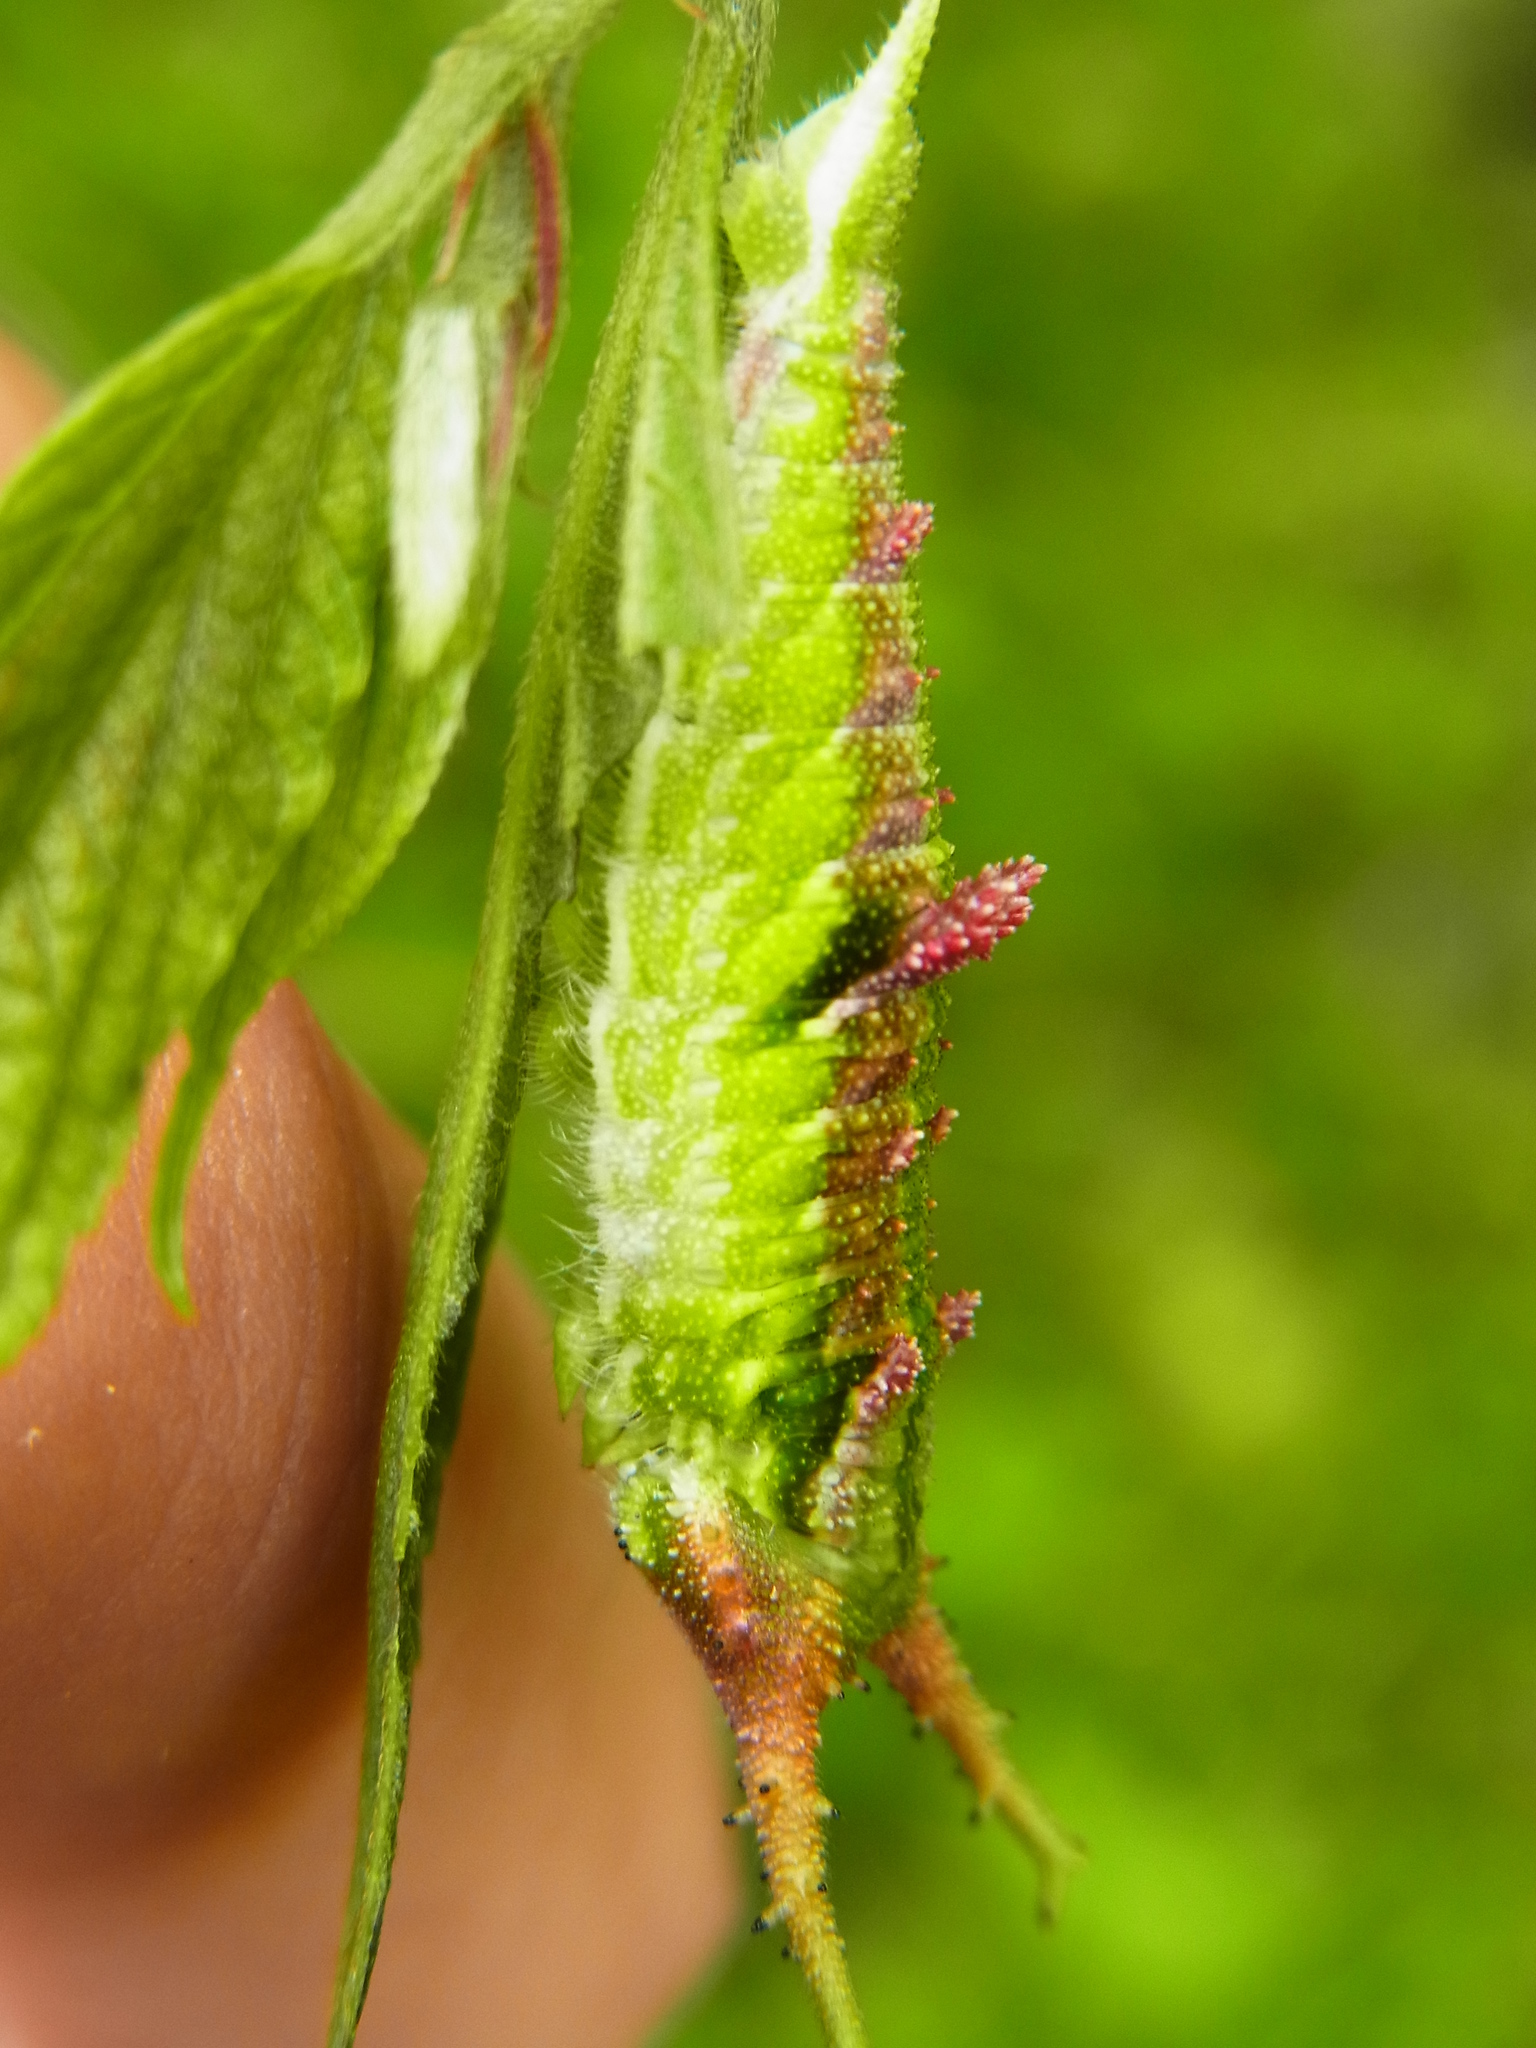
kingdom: Animalia
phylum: Arthropoda
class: Insecta
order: Lepidoptera
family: Nymphalidae
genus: Hestina
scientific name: Hestina persimilis
